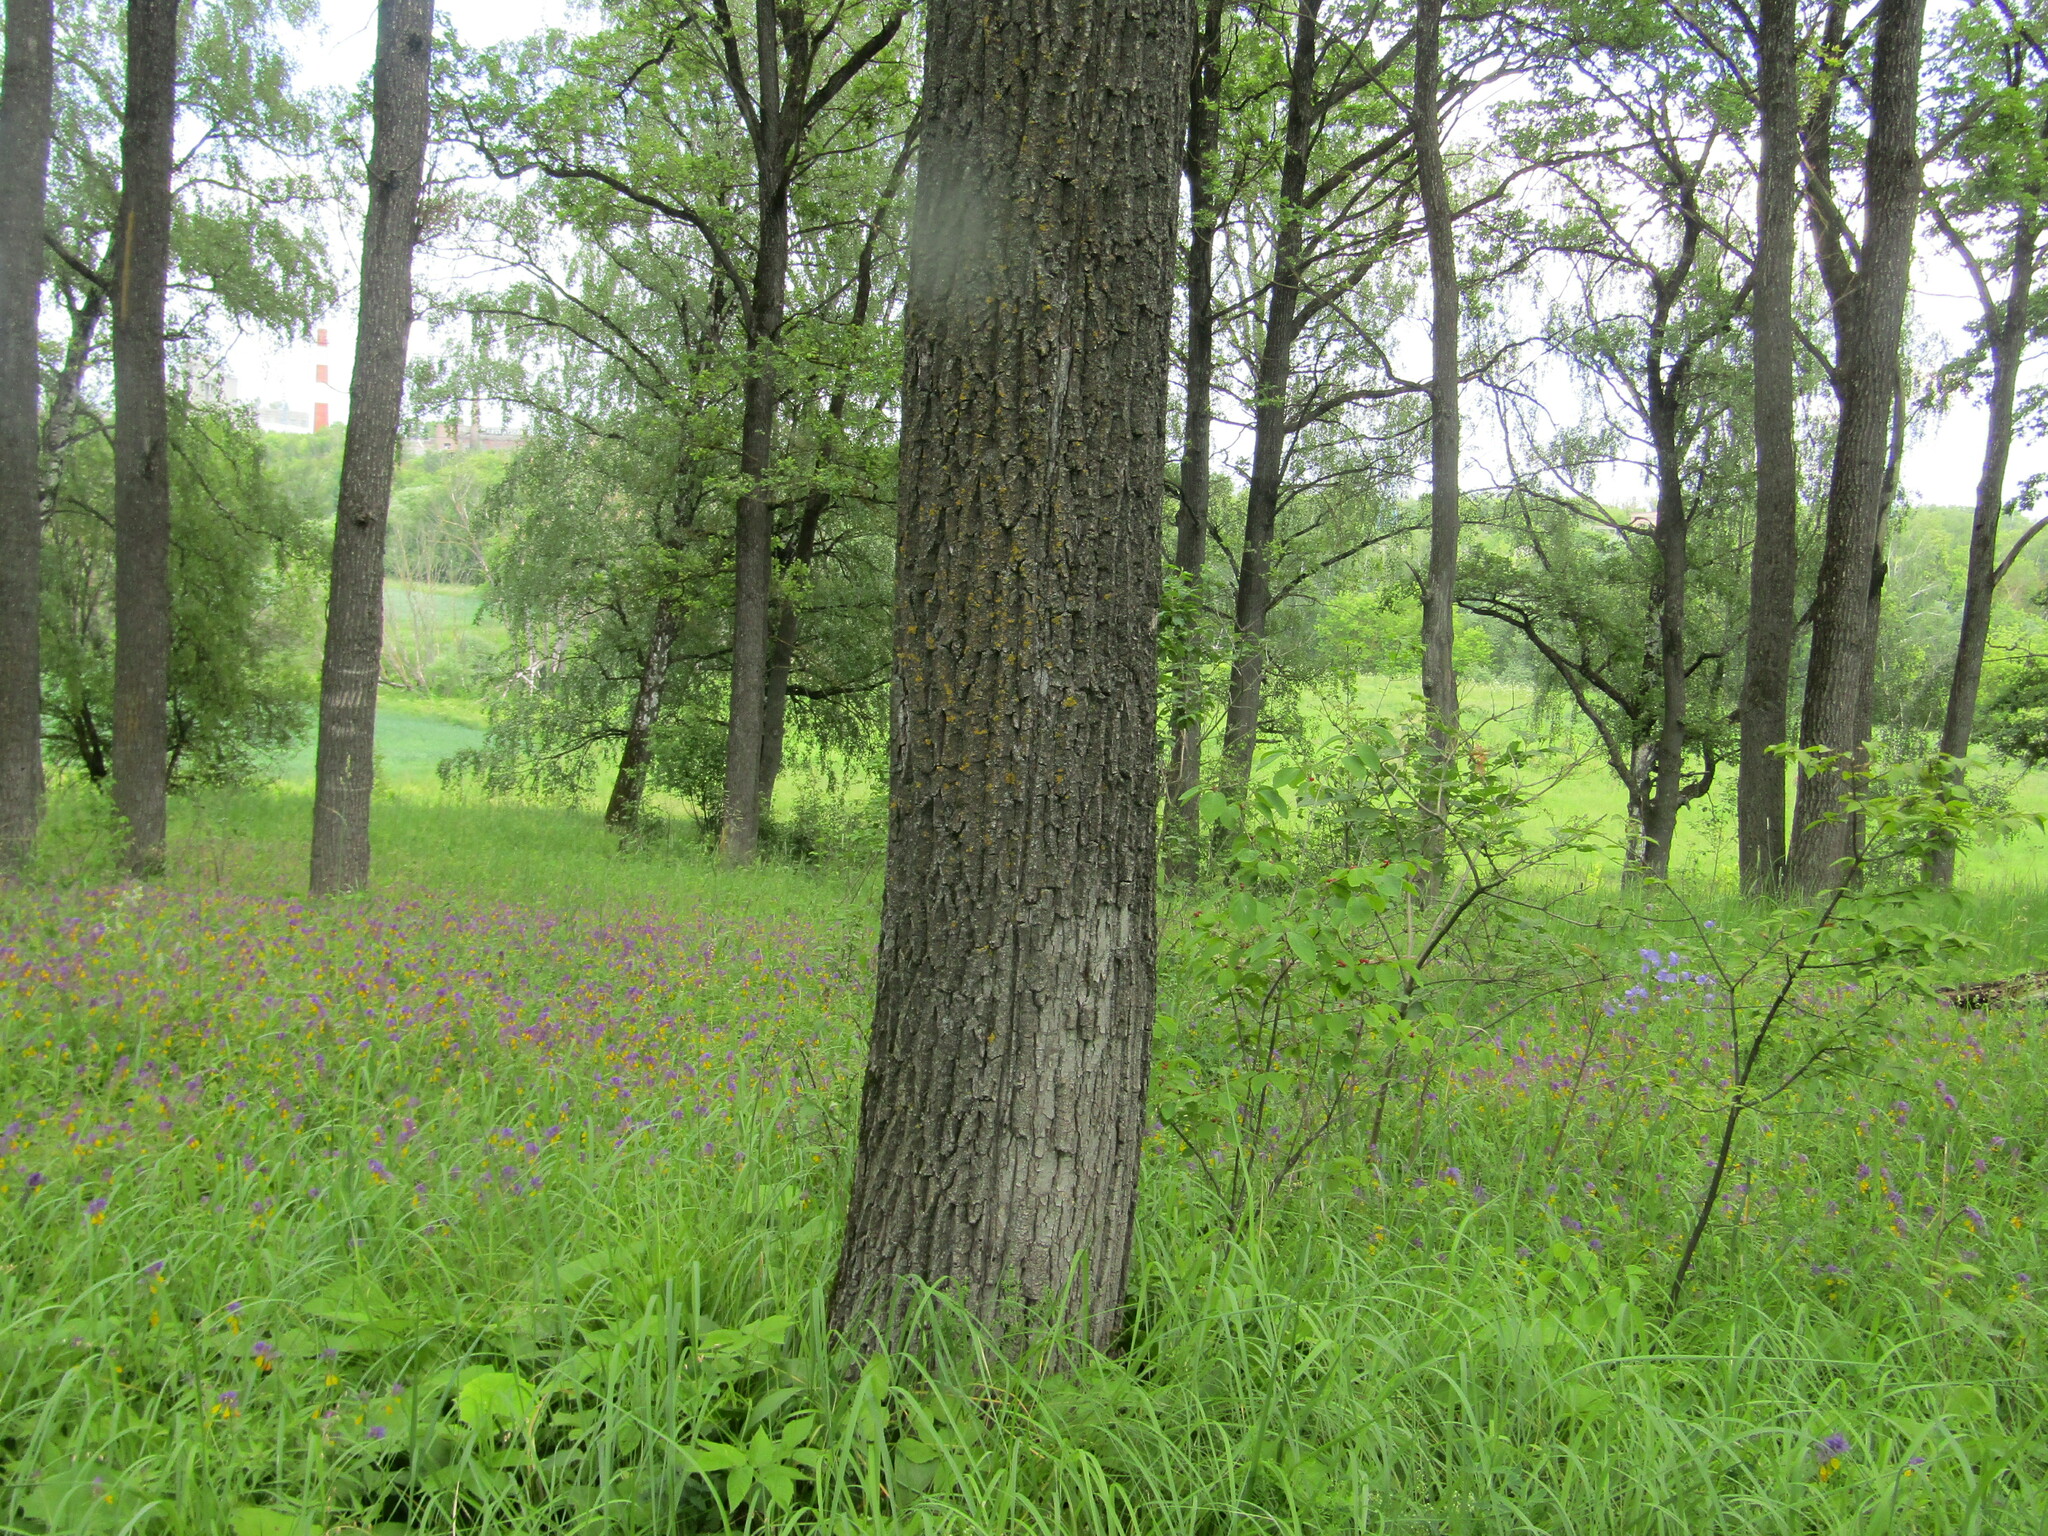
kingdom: Plantae
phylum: Tracheophyta
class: Magnoliopsida
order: Fagales
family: Fagaceae
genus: Quercus
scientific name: Quercus robur
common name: Pedunculate oak
